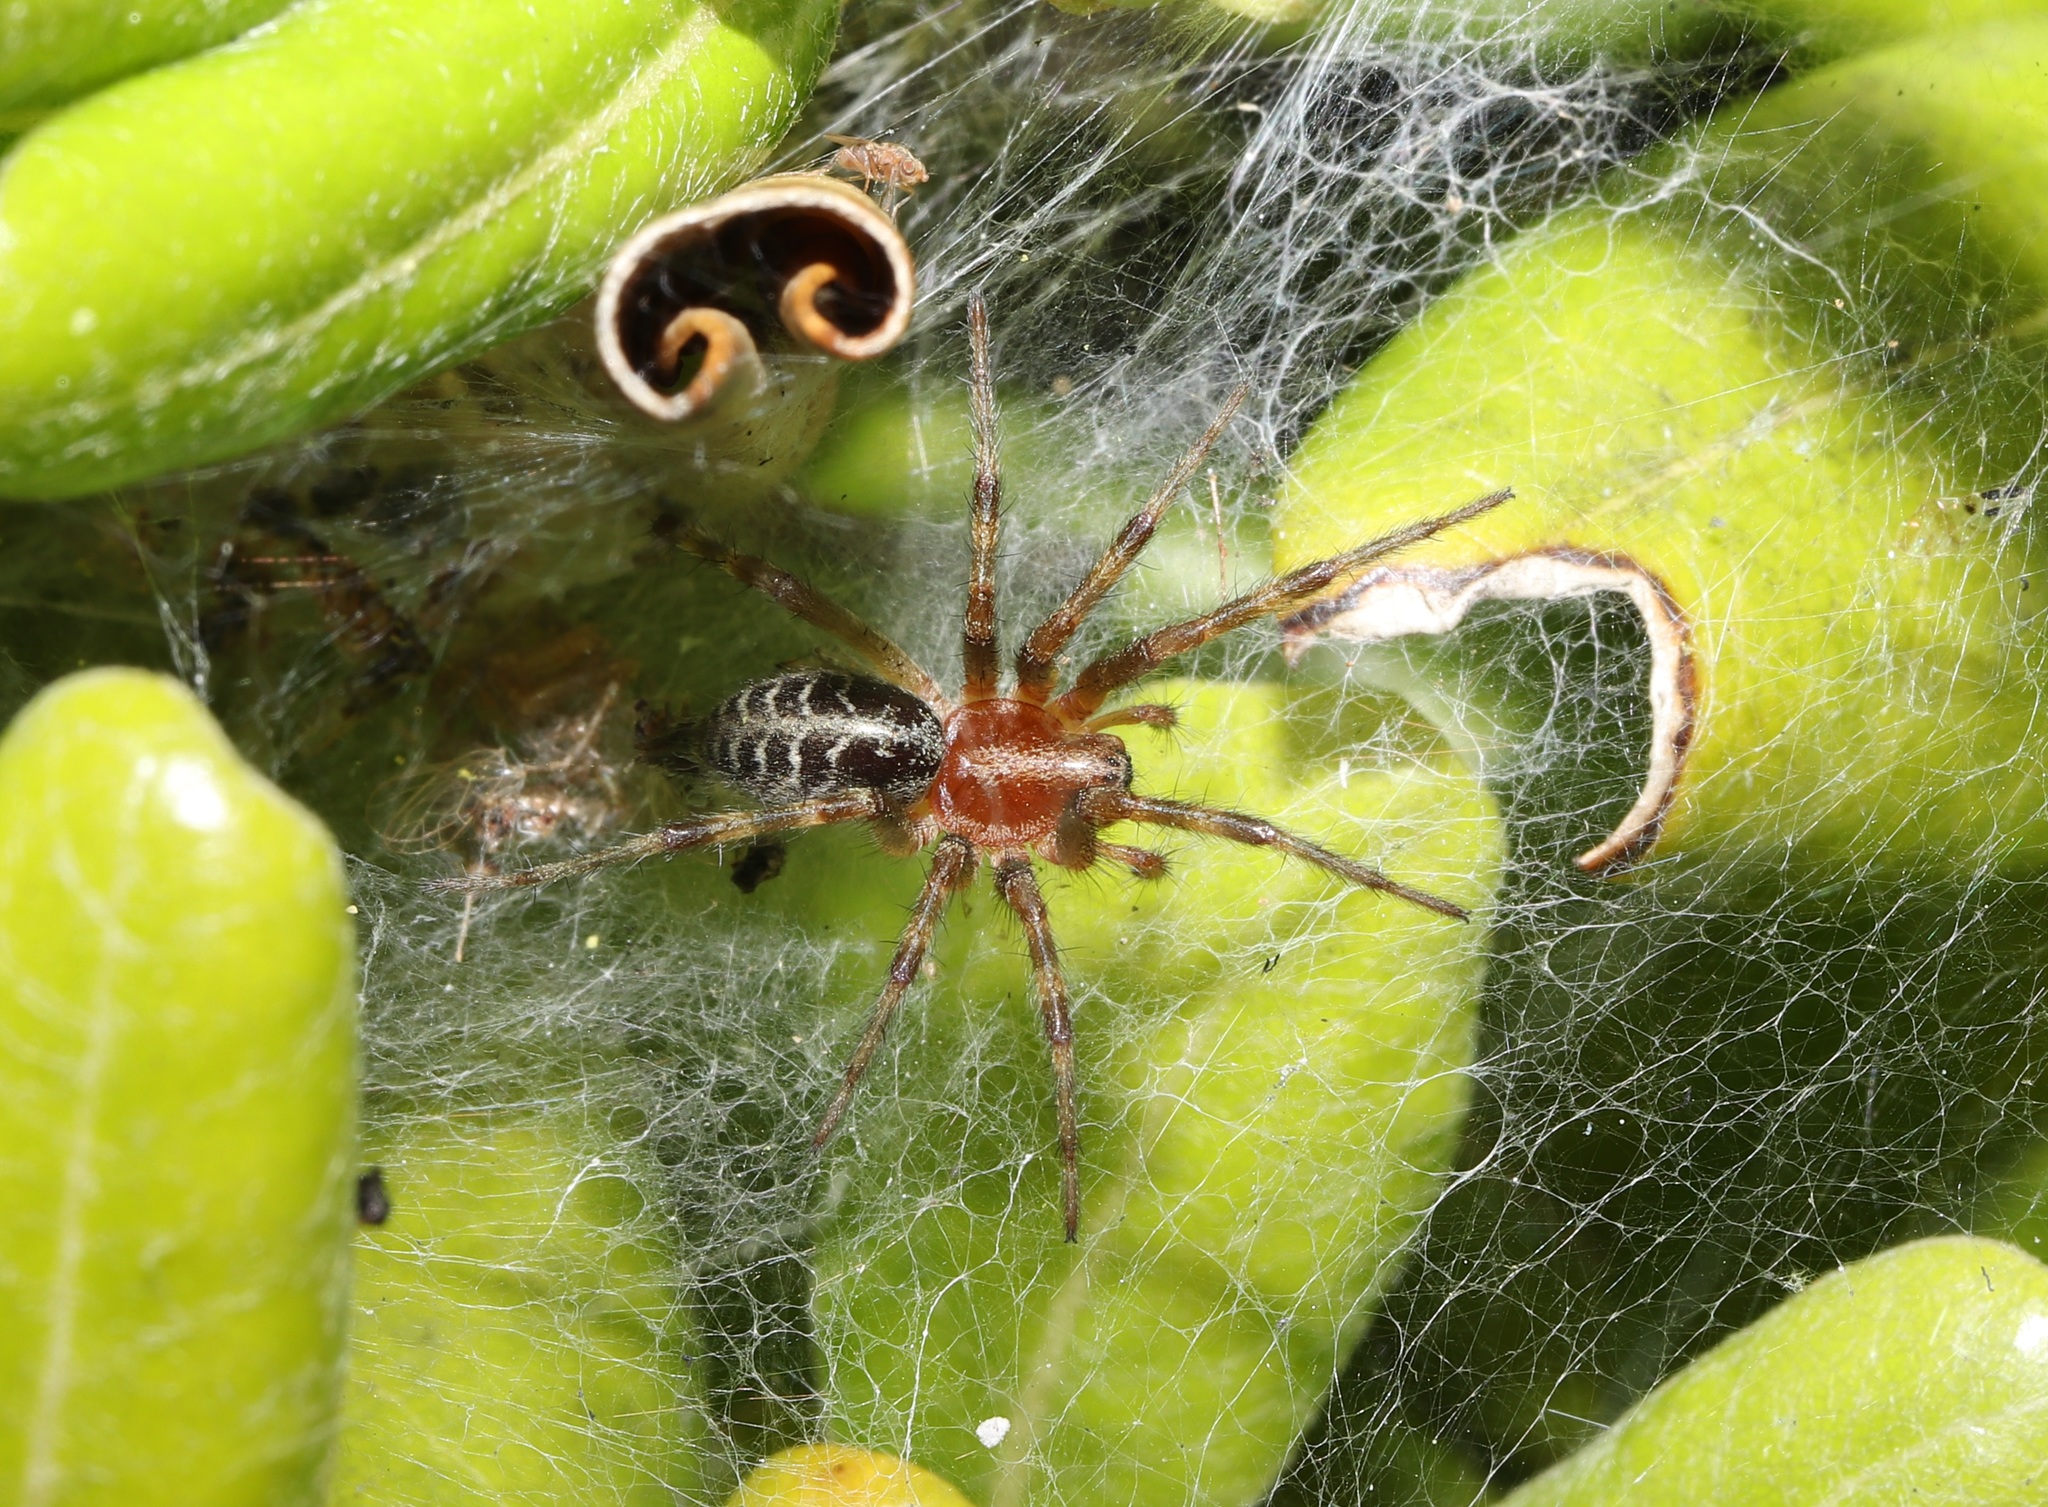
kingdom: Animalia
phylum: Arthropoda
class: Arachnida
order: Araneae
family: Agelenidae
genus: Agelena
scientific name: Agelena silvatica
